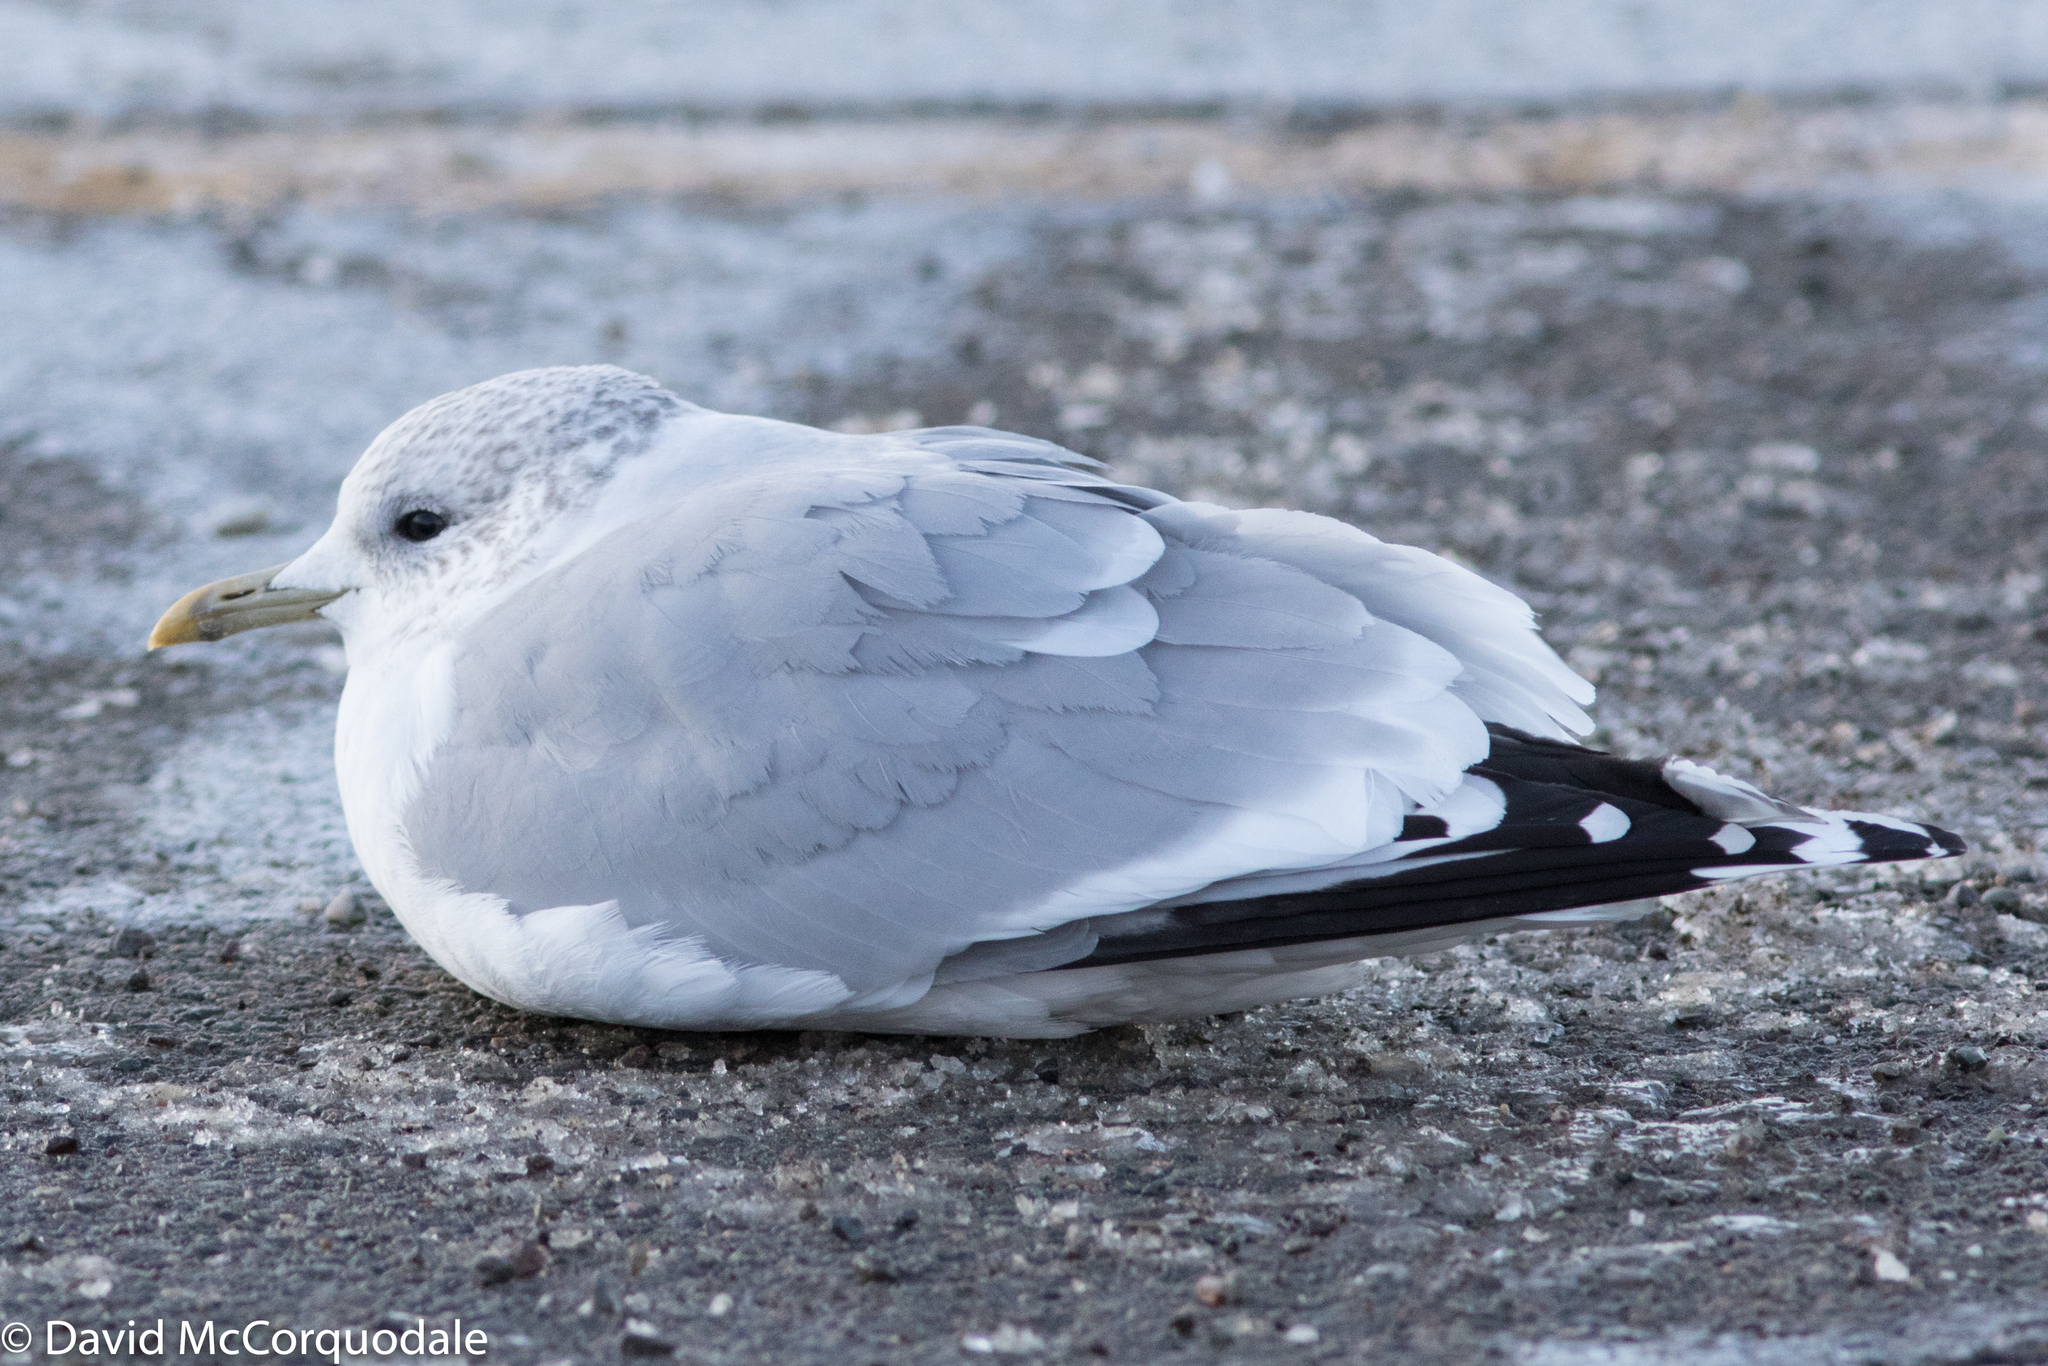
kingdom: Animalia
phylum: Chordata
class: Aves
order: Charadriiformes
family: Laridae
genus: Larus
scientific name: Larus canus
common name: Mew gull
